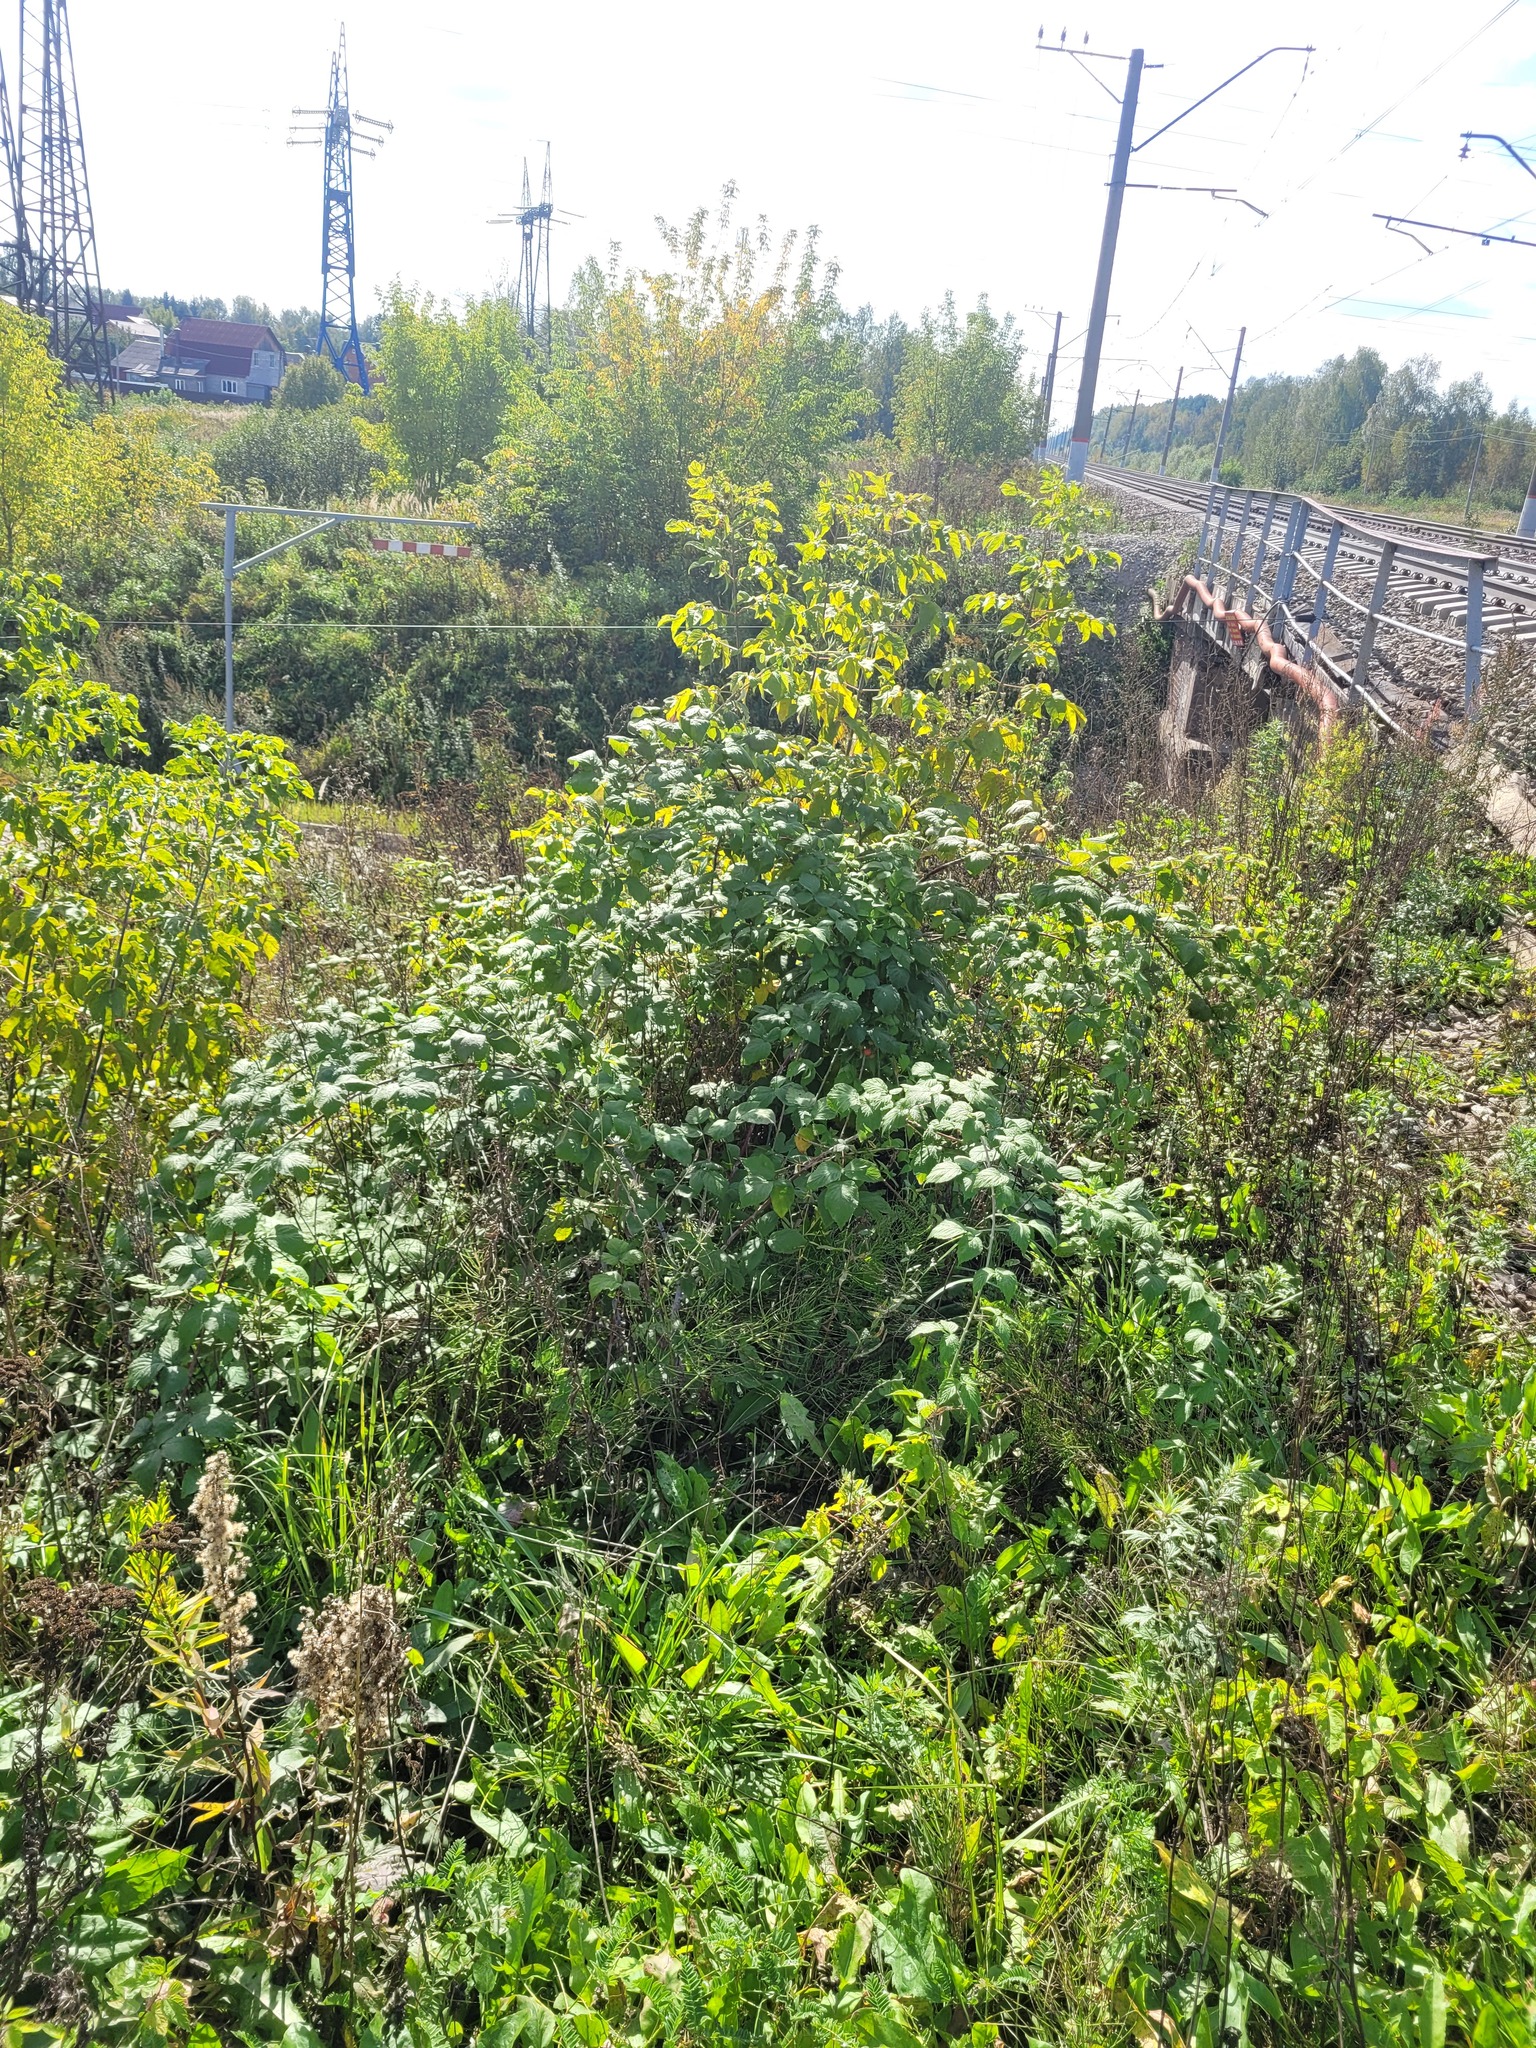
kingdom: Plantae
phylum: Tracheophyta
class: Magnoliopsida
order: Rosales
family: Rosaceae
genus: Rubus
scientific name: Rubus occidentalis
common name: Black raspberry
